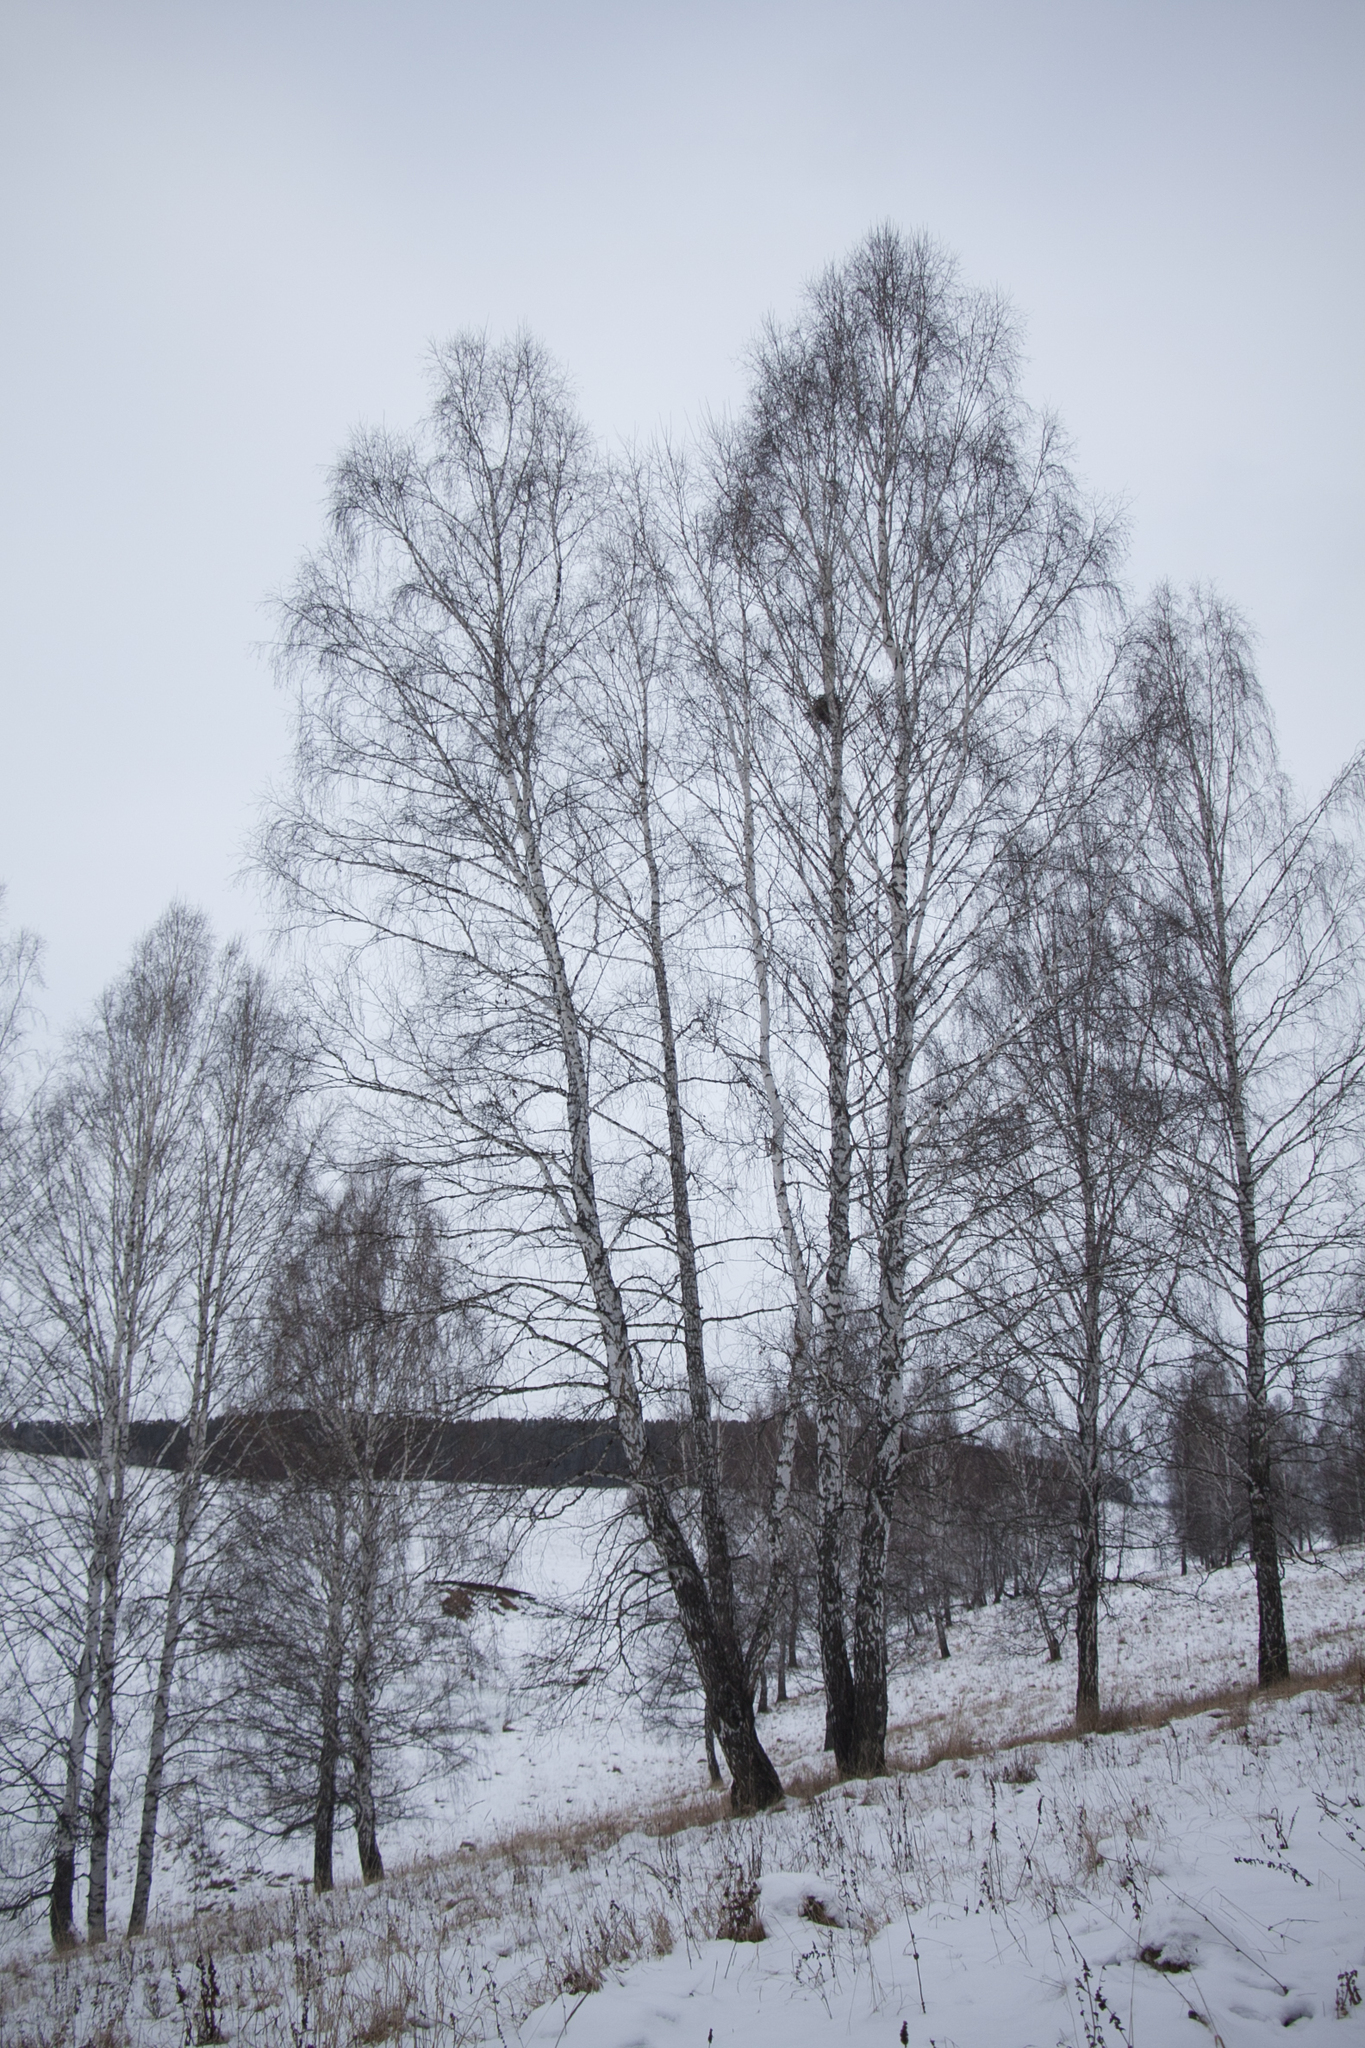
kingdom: Plantae
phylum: Tracheophyta
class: Magnoliopsida
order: Fagales
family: Betulaceae
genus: Betula
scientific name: Betula pendula
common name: Silver birch
